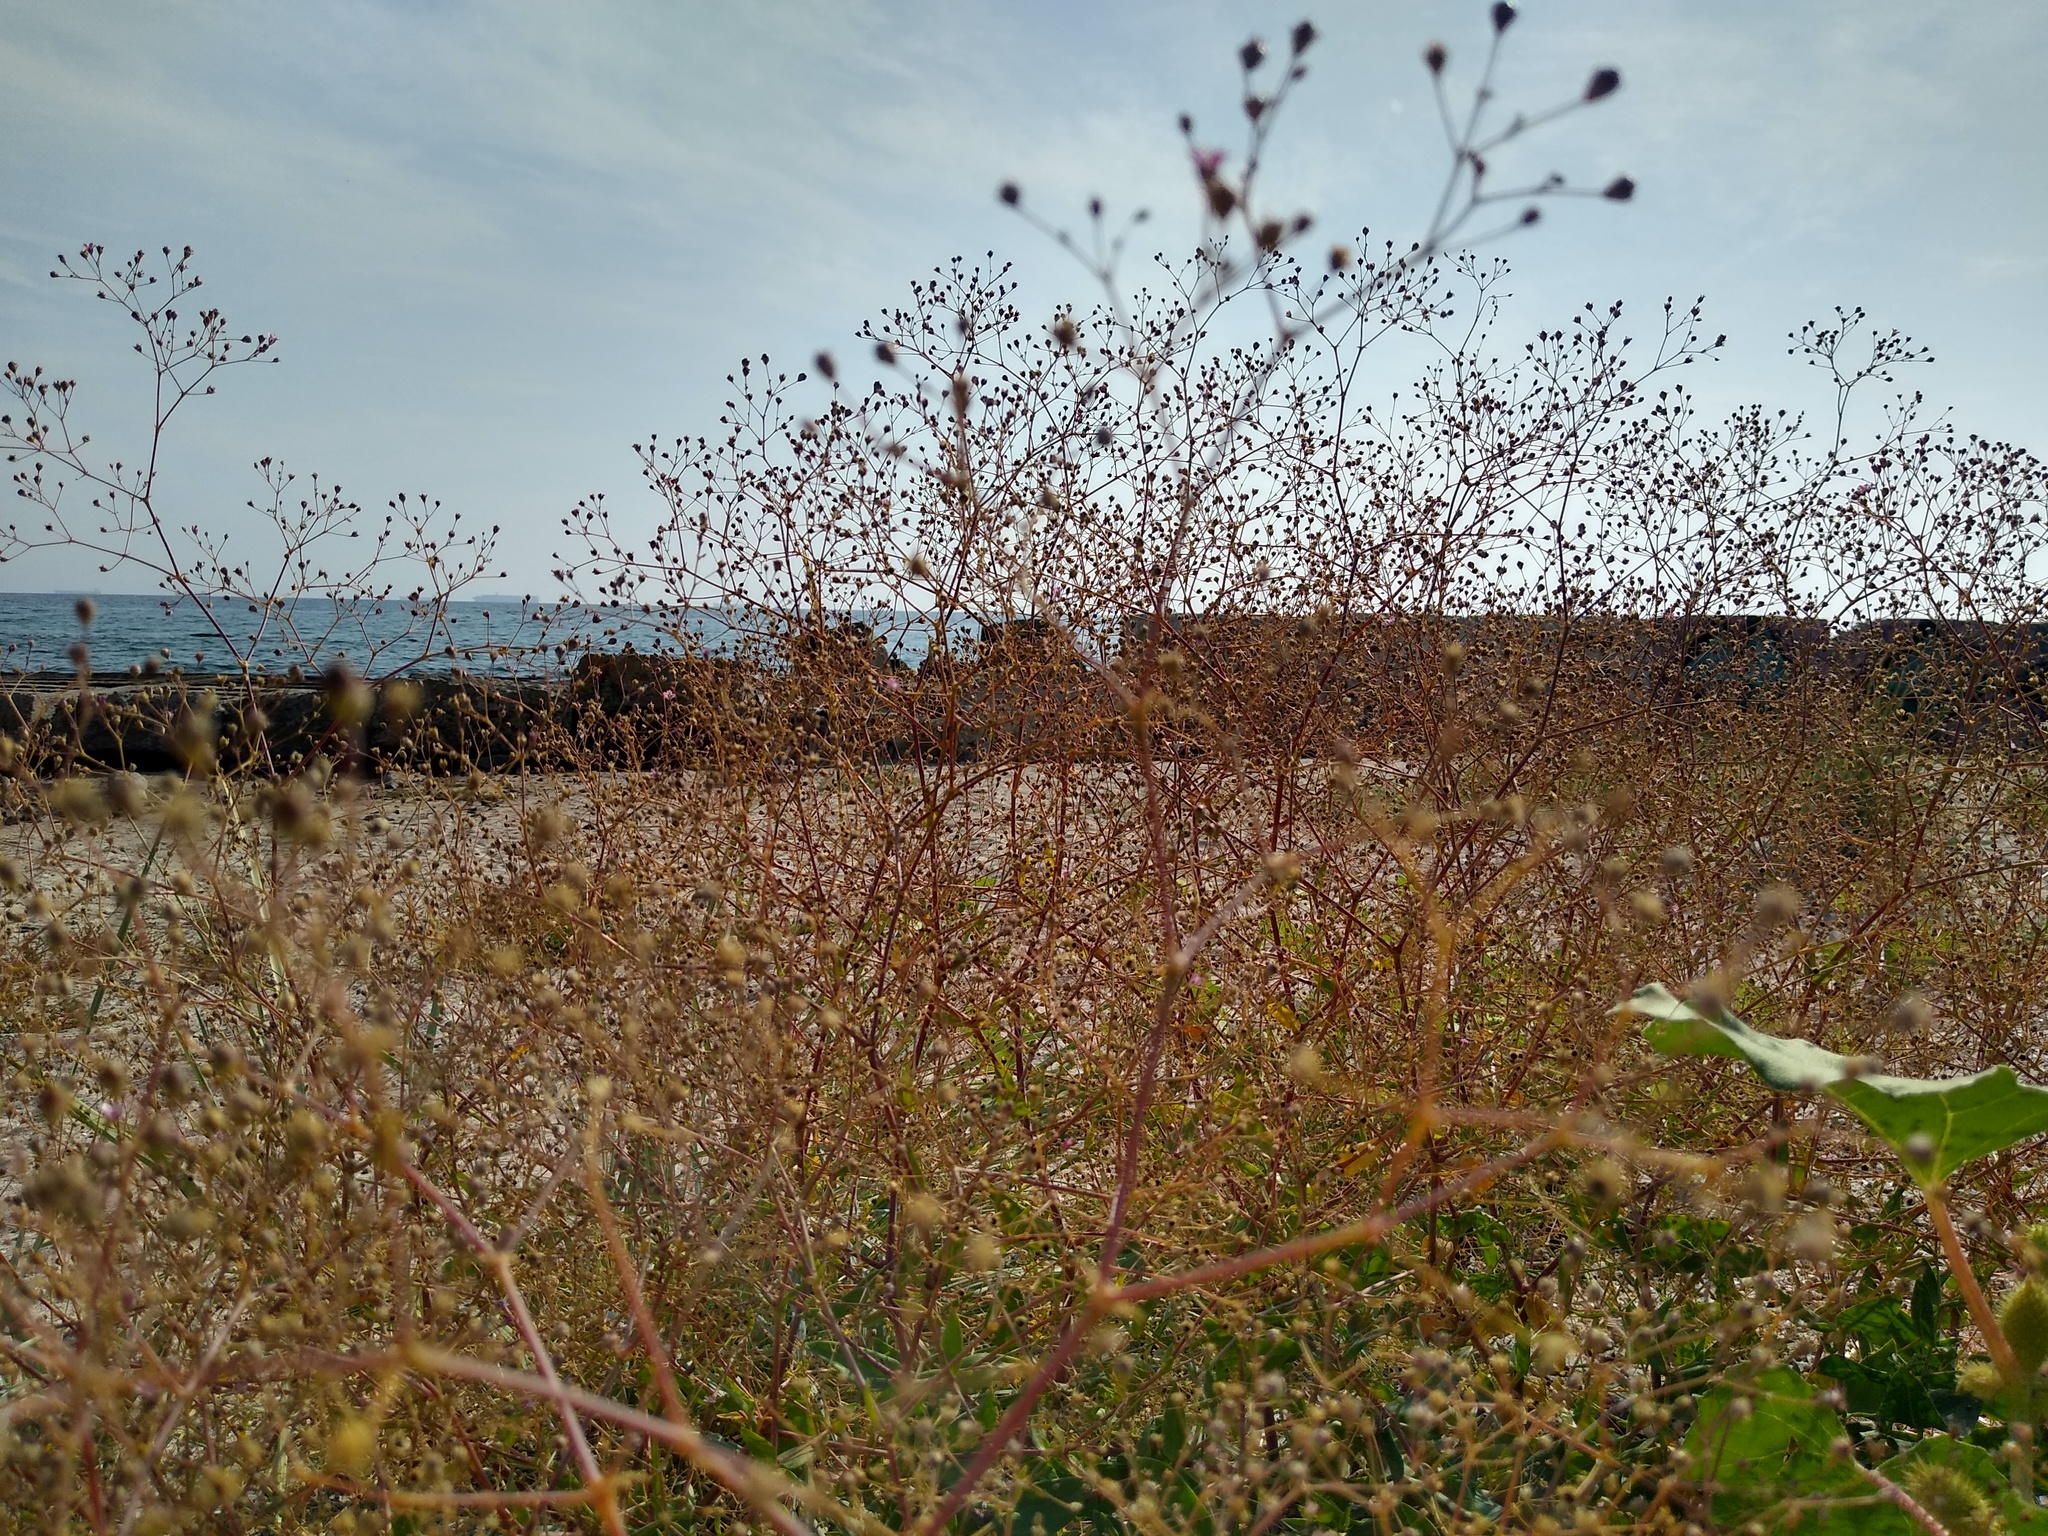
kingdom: Plantae
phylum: Tracheophyta
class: Magnoliopsida
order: Caryophyllales
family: Caryophyllaceae
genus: Gypsophila
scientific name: Gypsophila perfoliata
